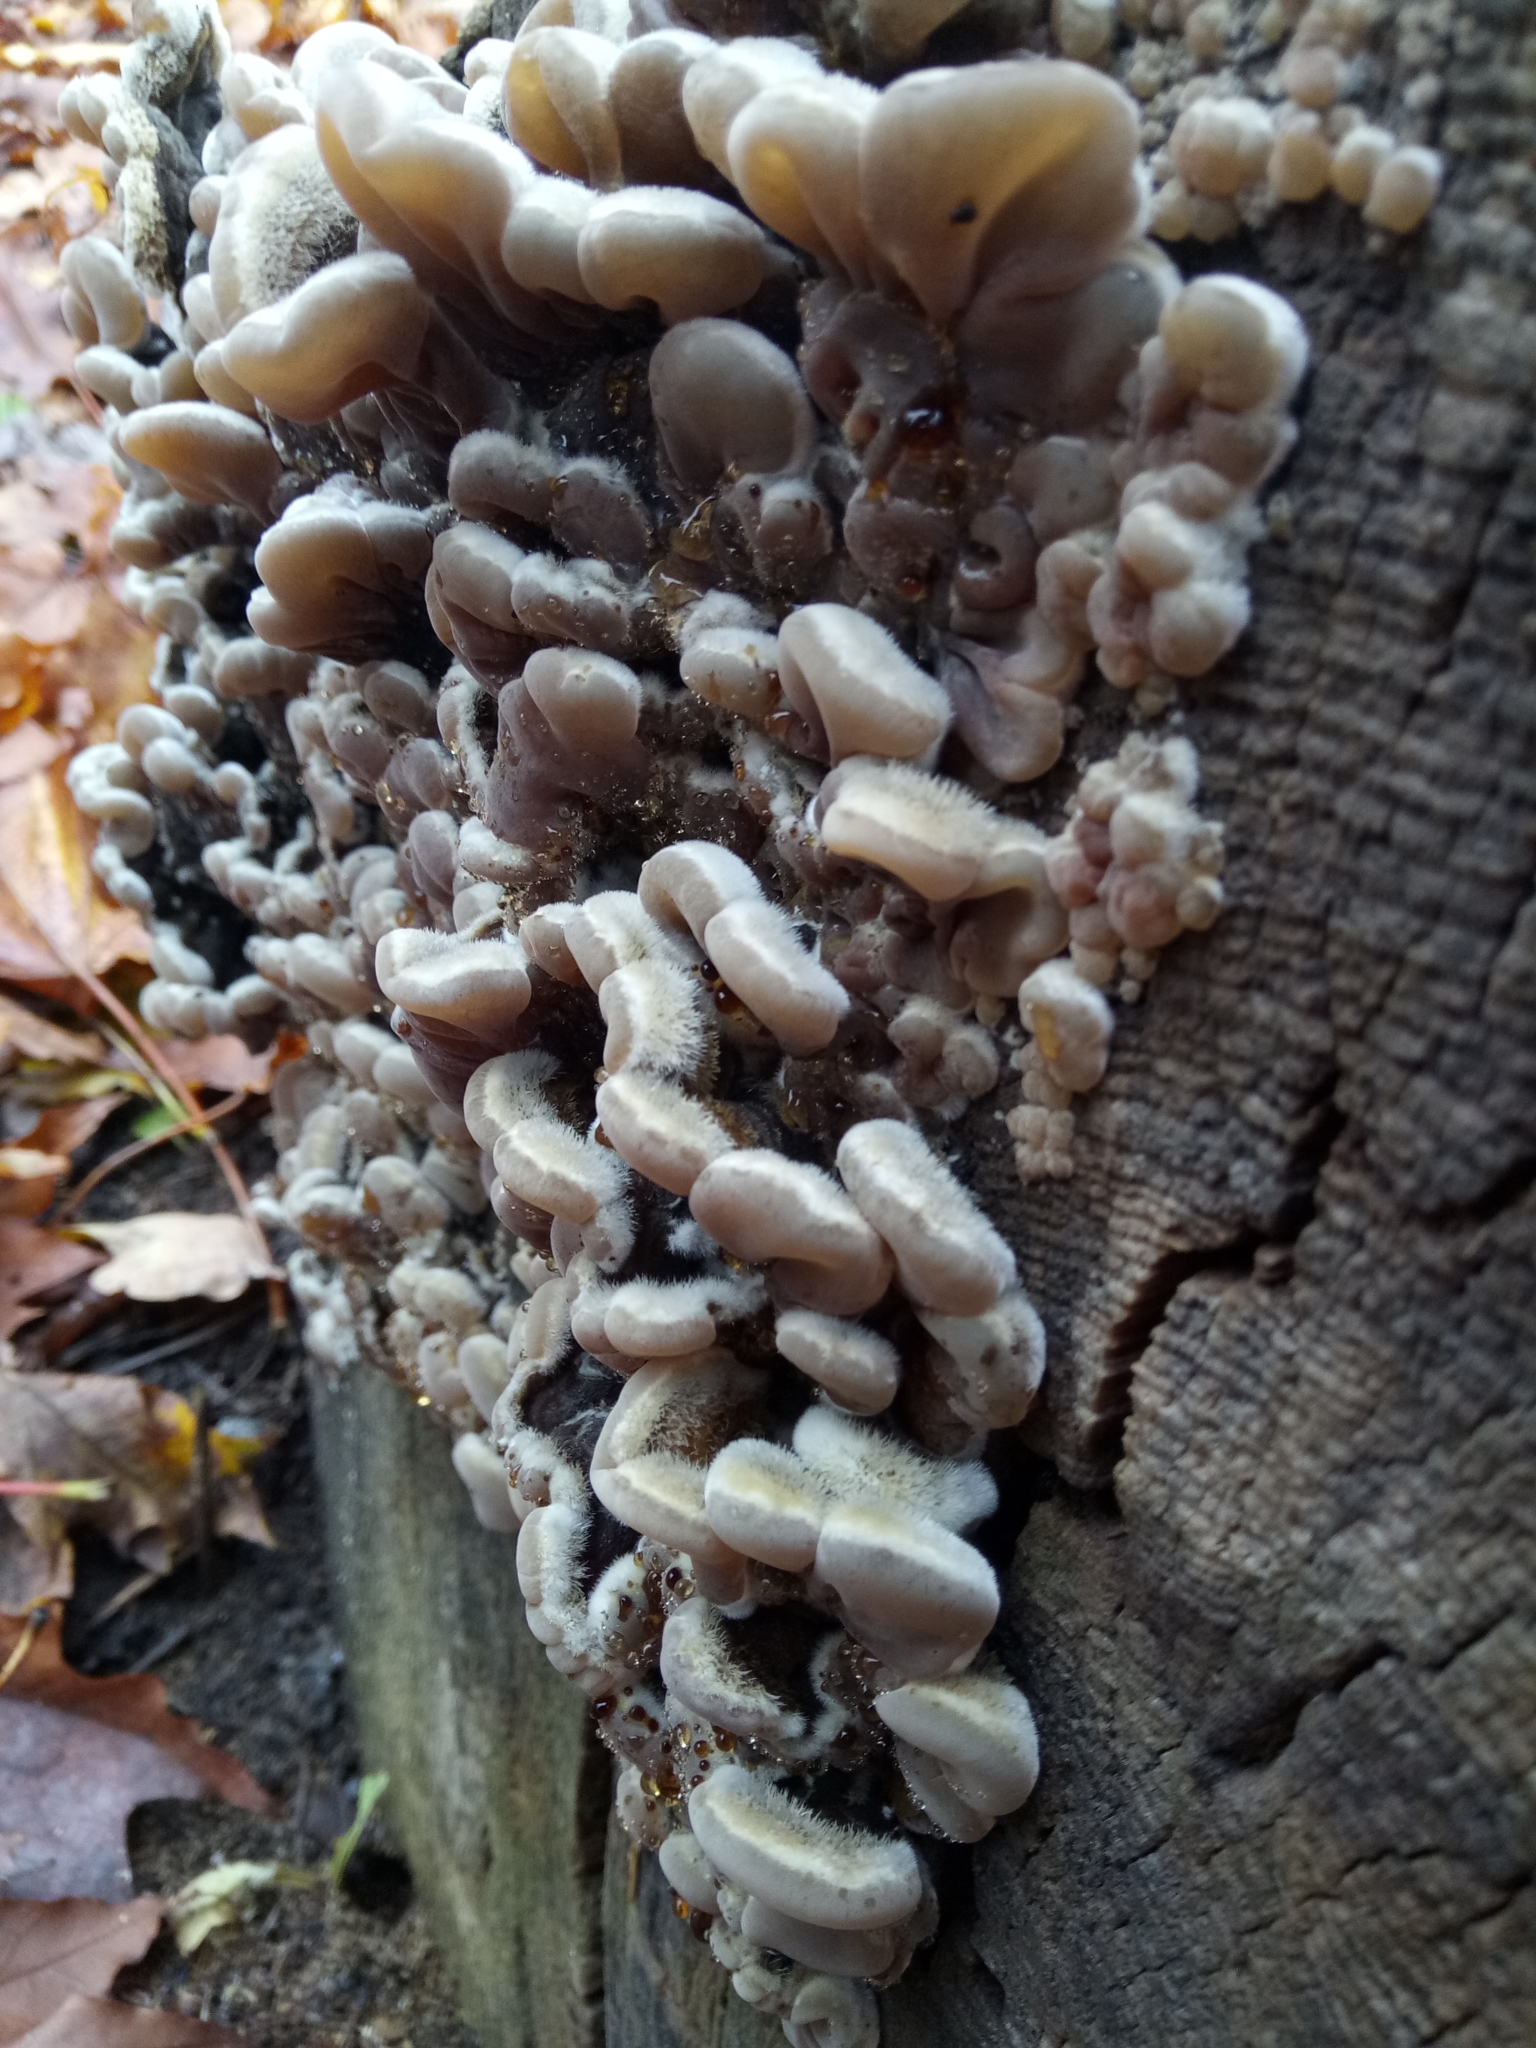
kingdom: Fungi
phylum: Basidiomycota
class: Agaricomycetes
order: Polyporales
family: Phanerochaetaceae
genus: Bjerkandera
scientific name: Bjerkandera adusta
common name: Smoky bracket
